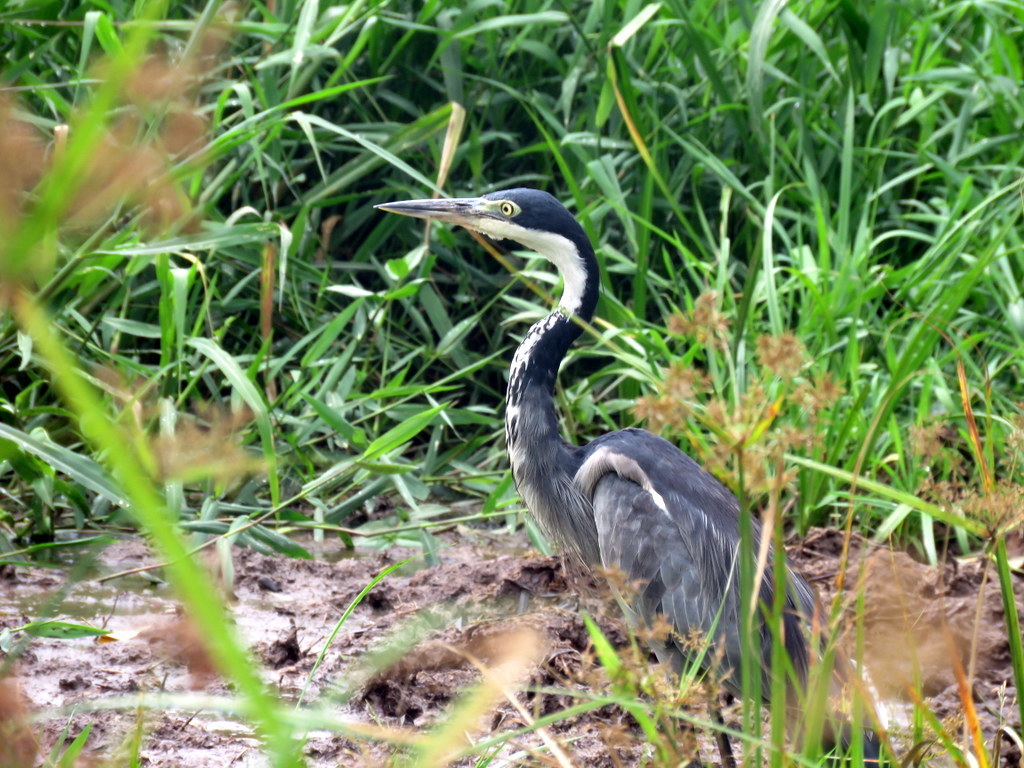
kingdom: Animalia
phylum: Chordata
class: Aves
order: Pelecaniformes
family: Ardeidae
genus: Ardea
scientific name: Ardea melanocephala
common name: Black-headed heron
